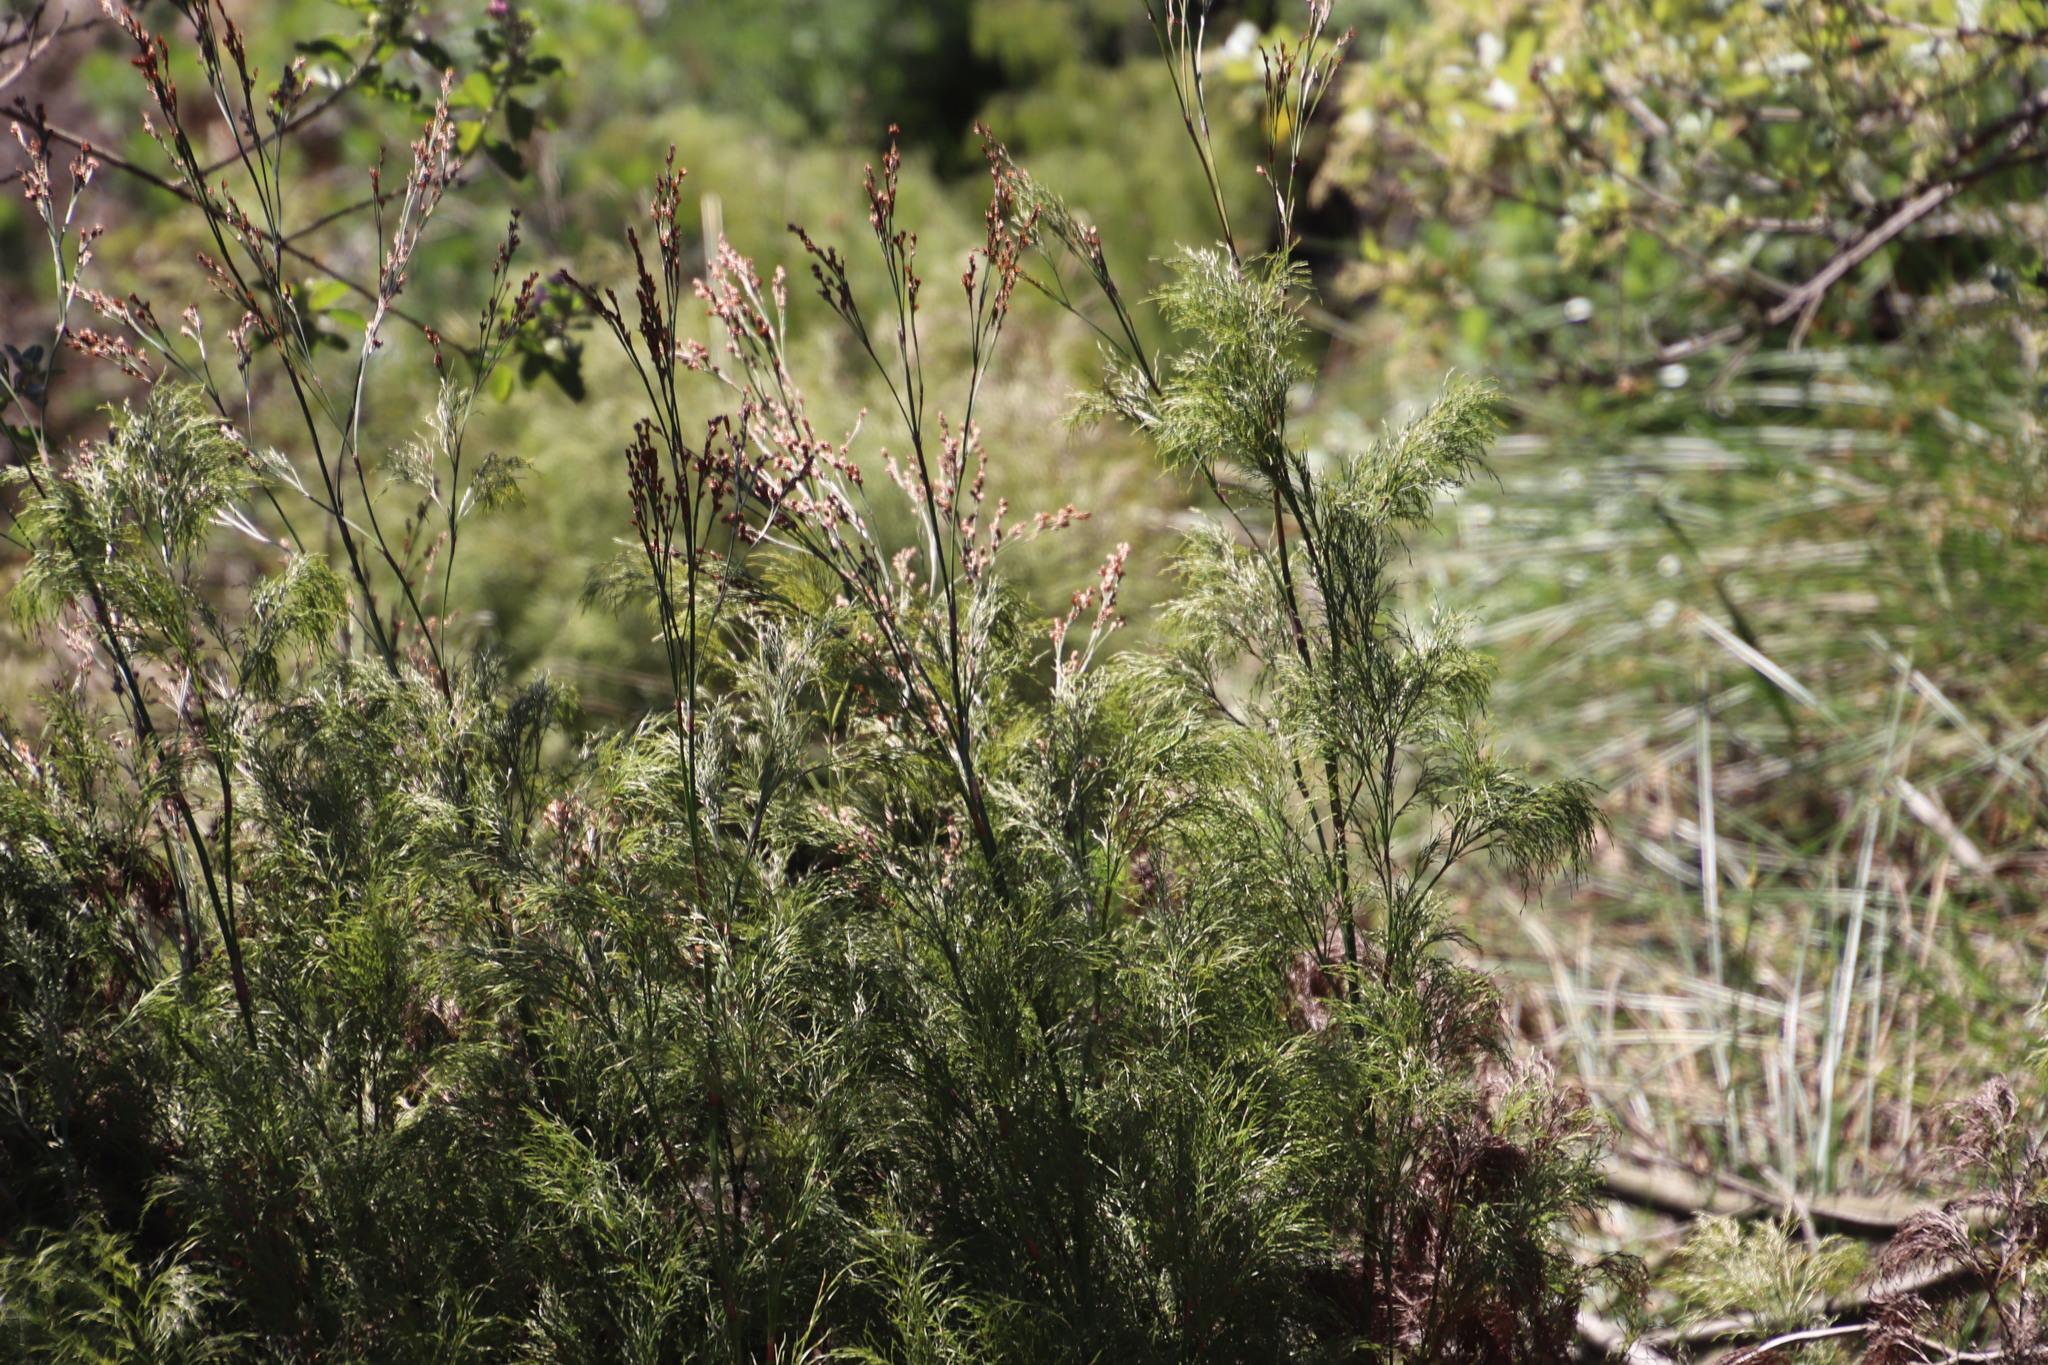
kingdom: Plantae
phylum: Tracheophyta
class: Liliopsida
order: Poales
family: Restionaceae
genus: Restio
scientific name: Restio quadratus
